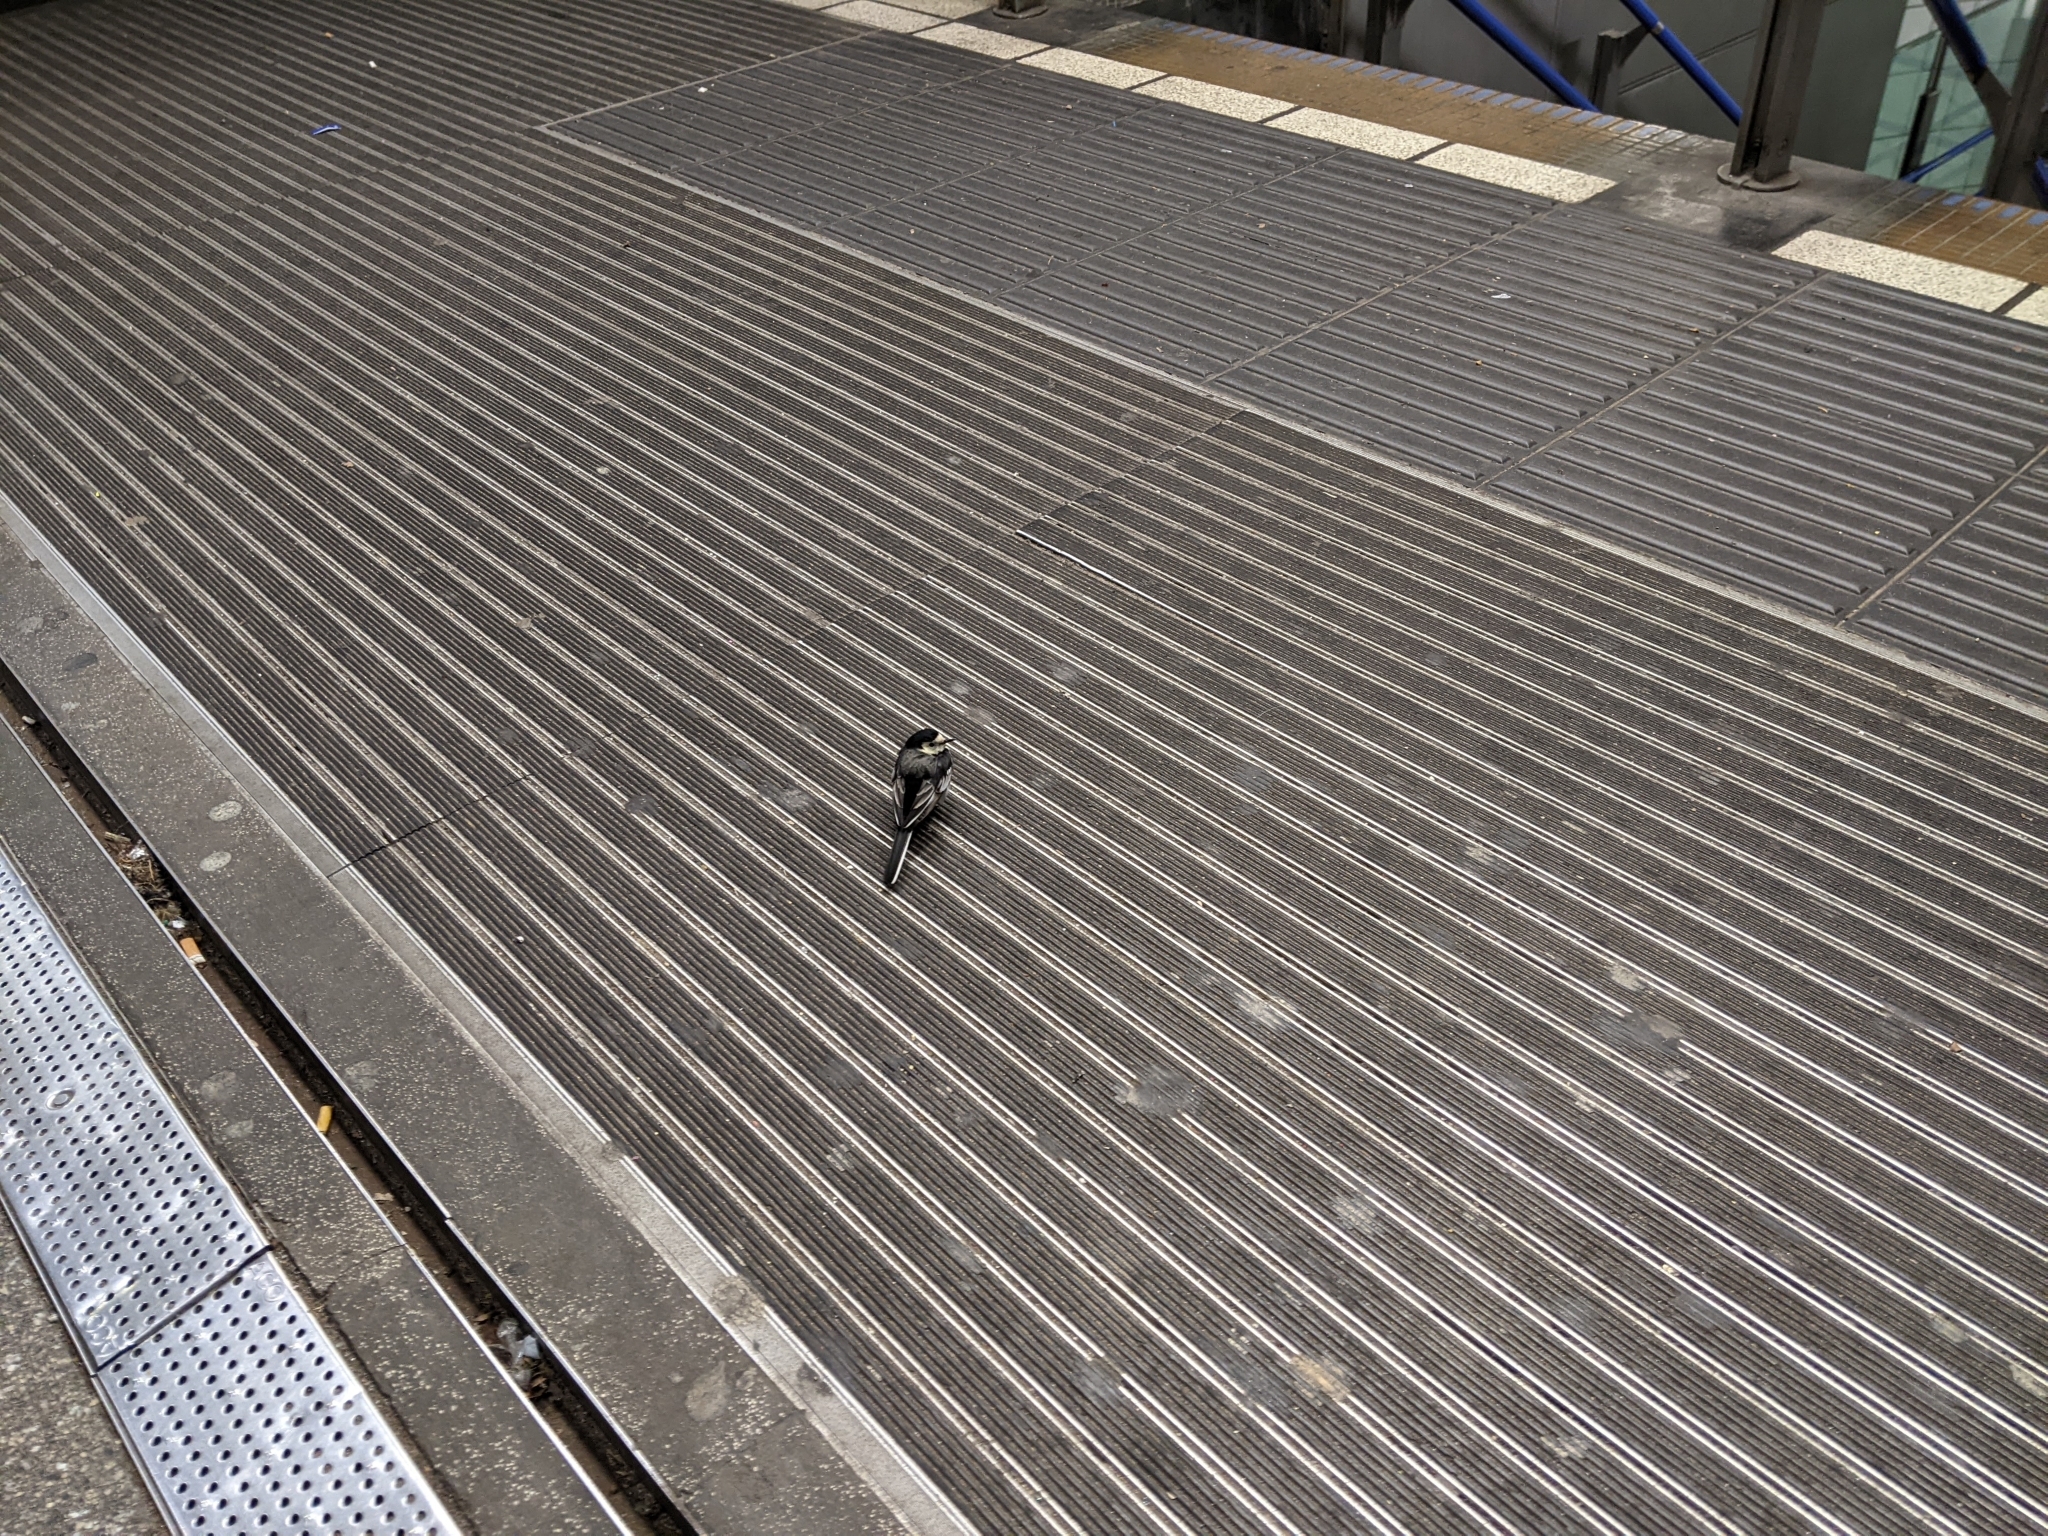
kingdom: Animalia
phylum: Chordata
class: Aves
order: Passeriformes
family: Motacillidae
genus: Motacilla
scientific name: Motacilla alba
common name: White wagtail
